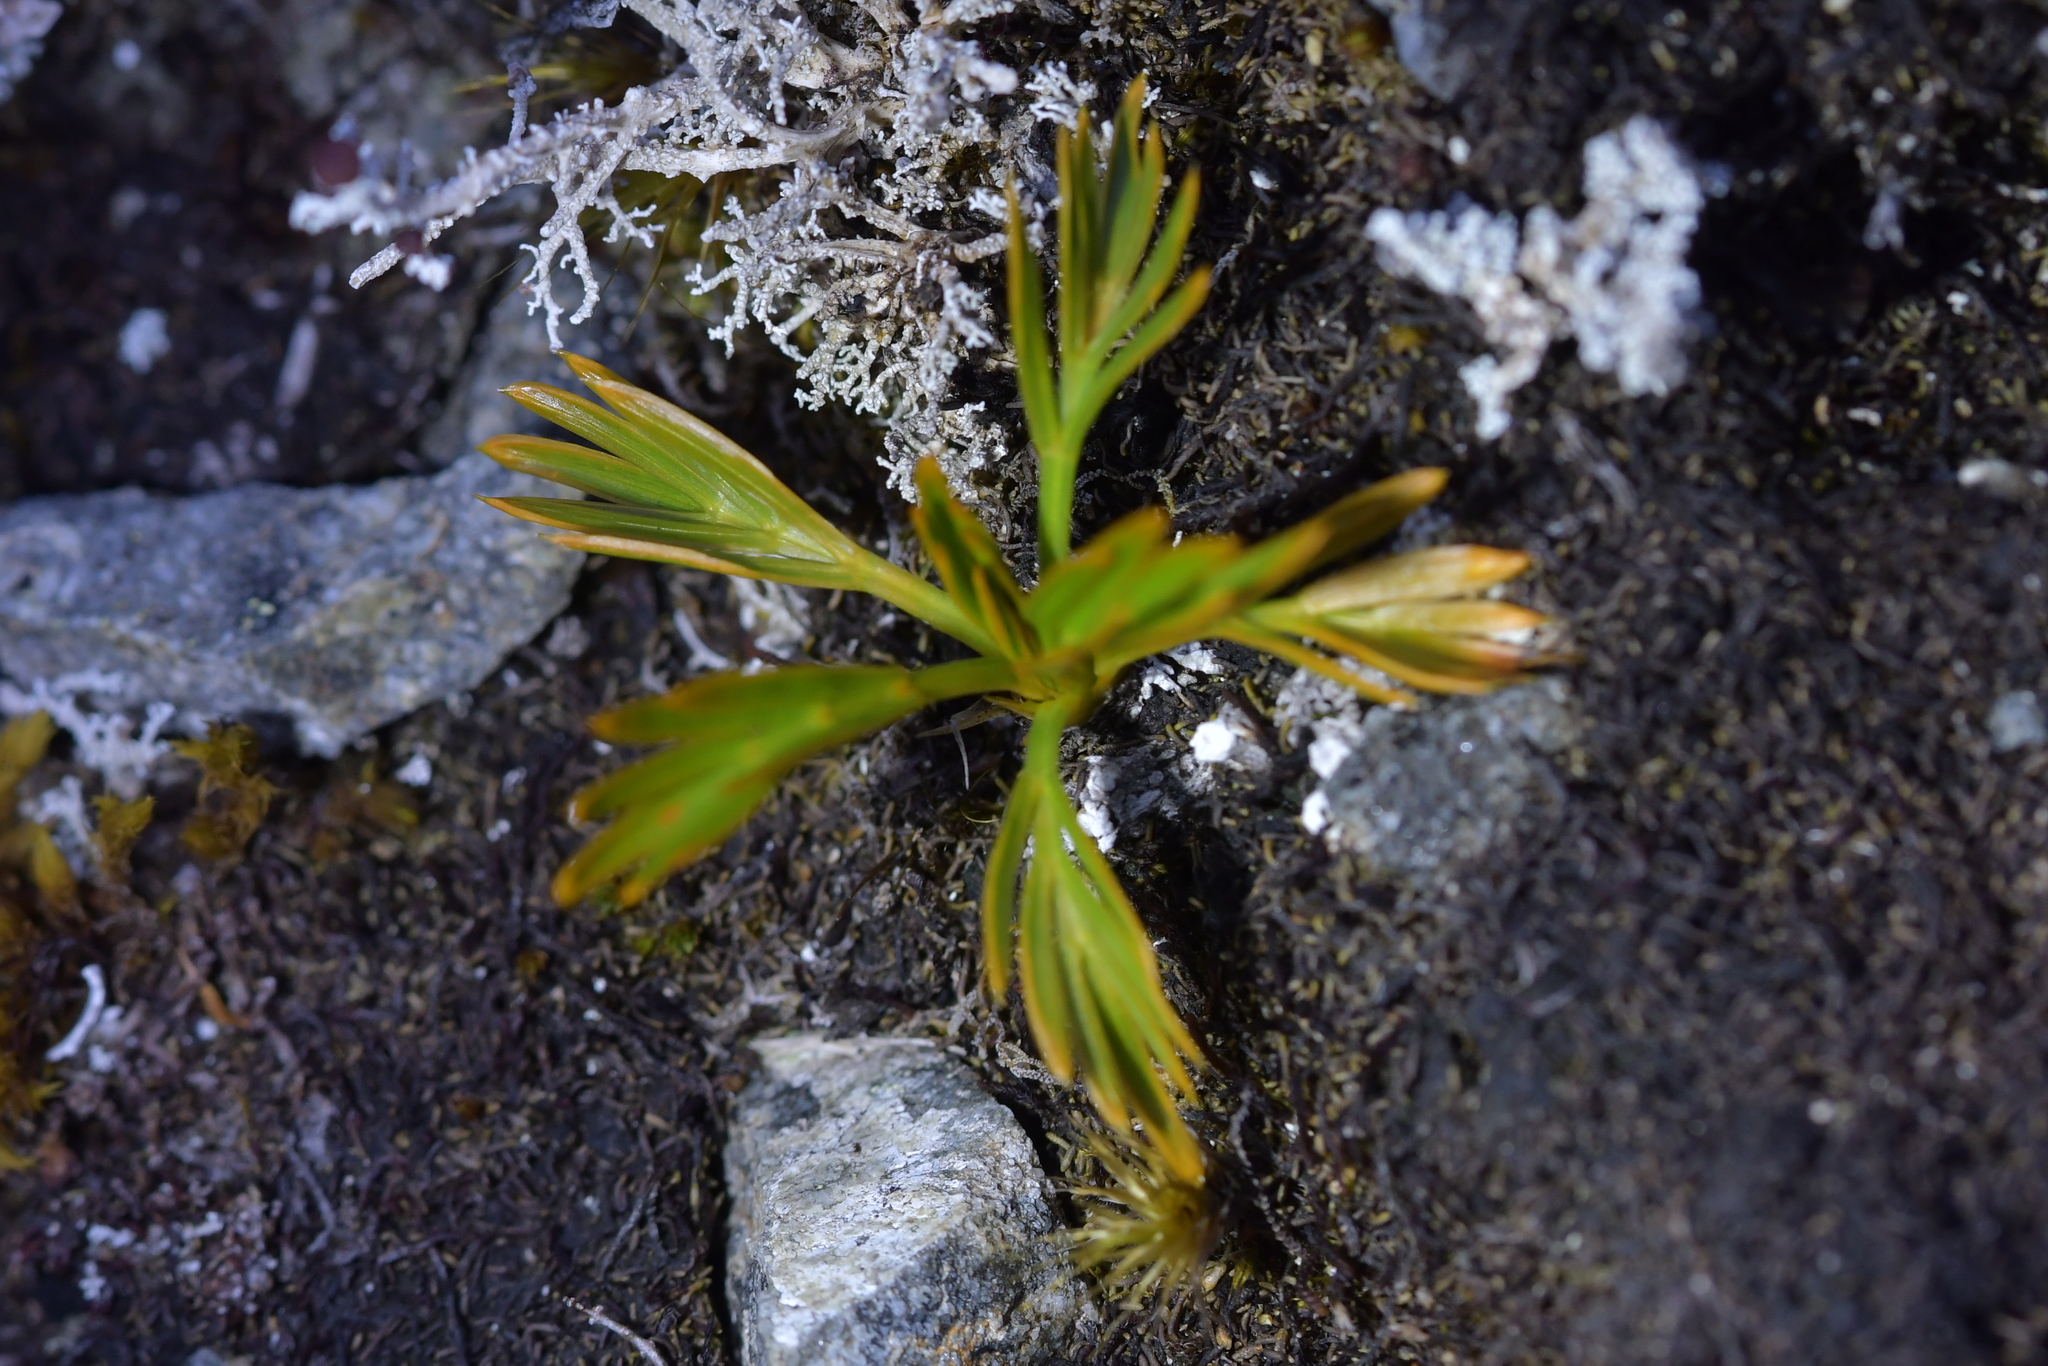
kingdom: Plantae
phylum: Tracheophyta
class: Magnoliopsida
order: Apiales
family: Apiaceae
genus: Aciphylla
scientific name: Aciphylla similis
